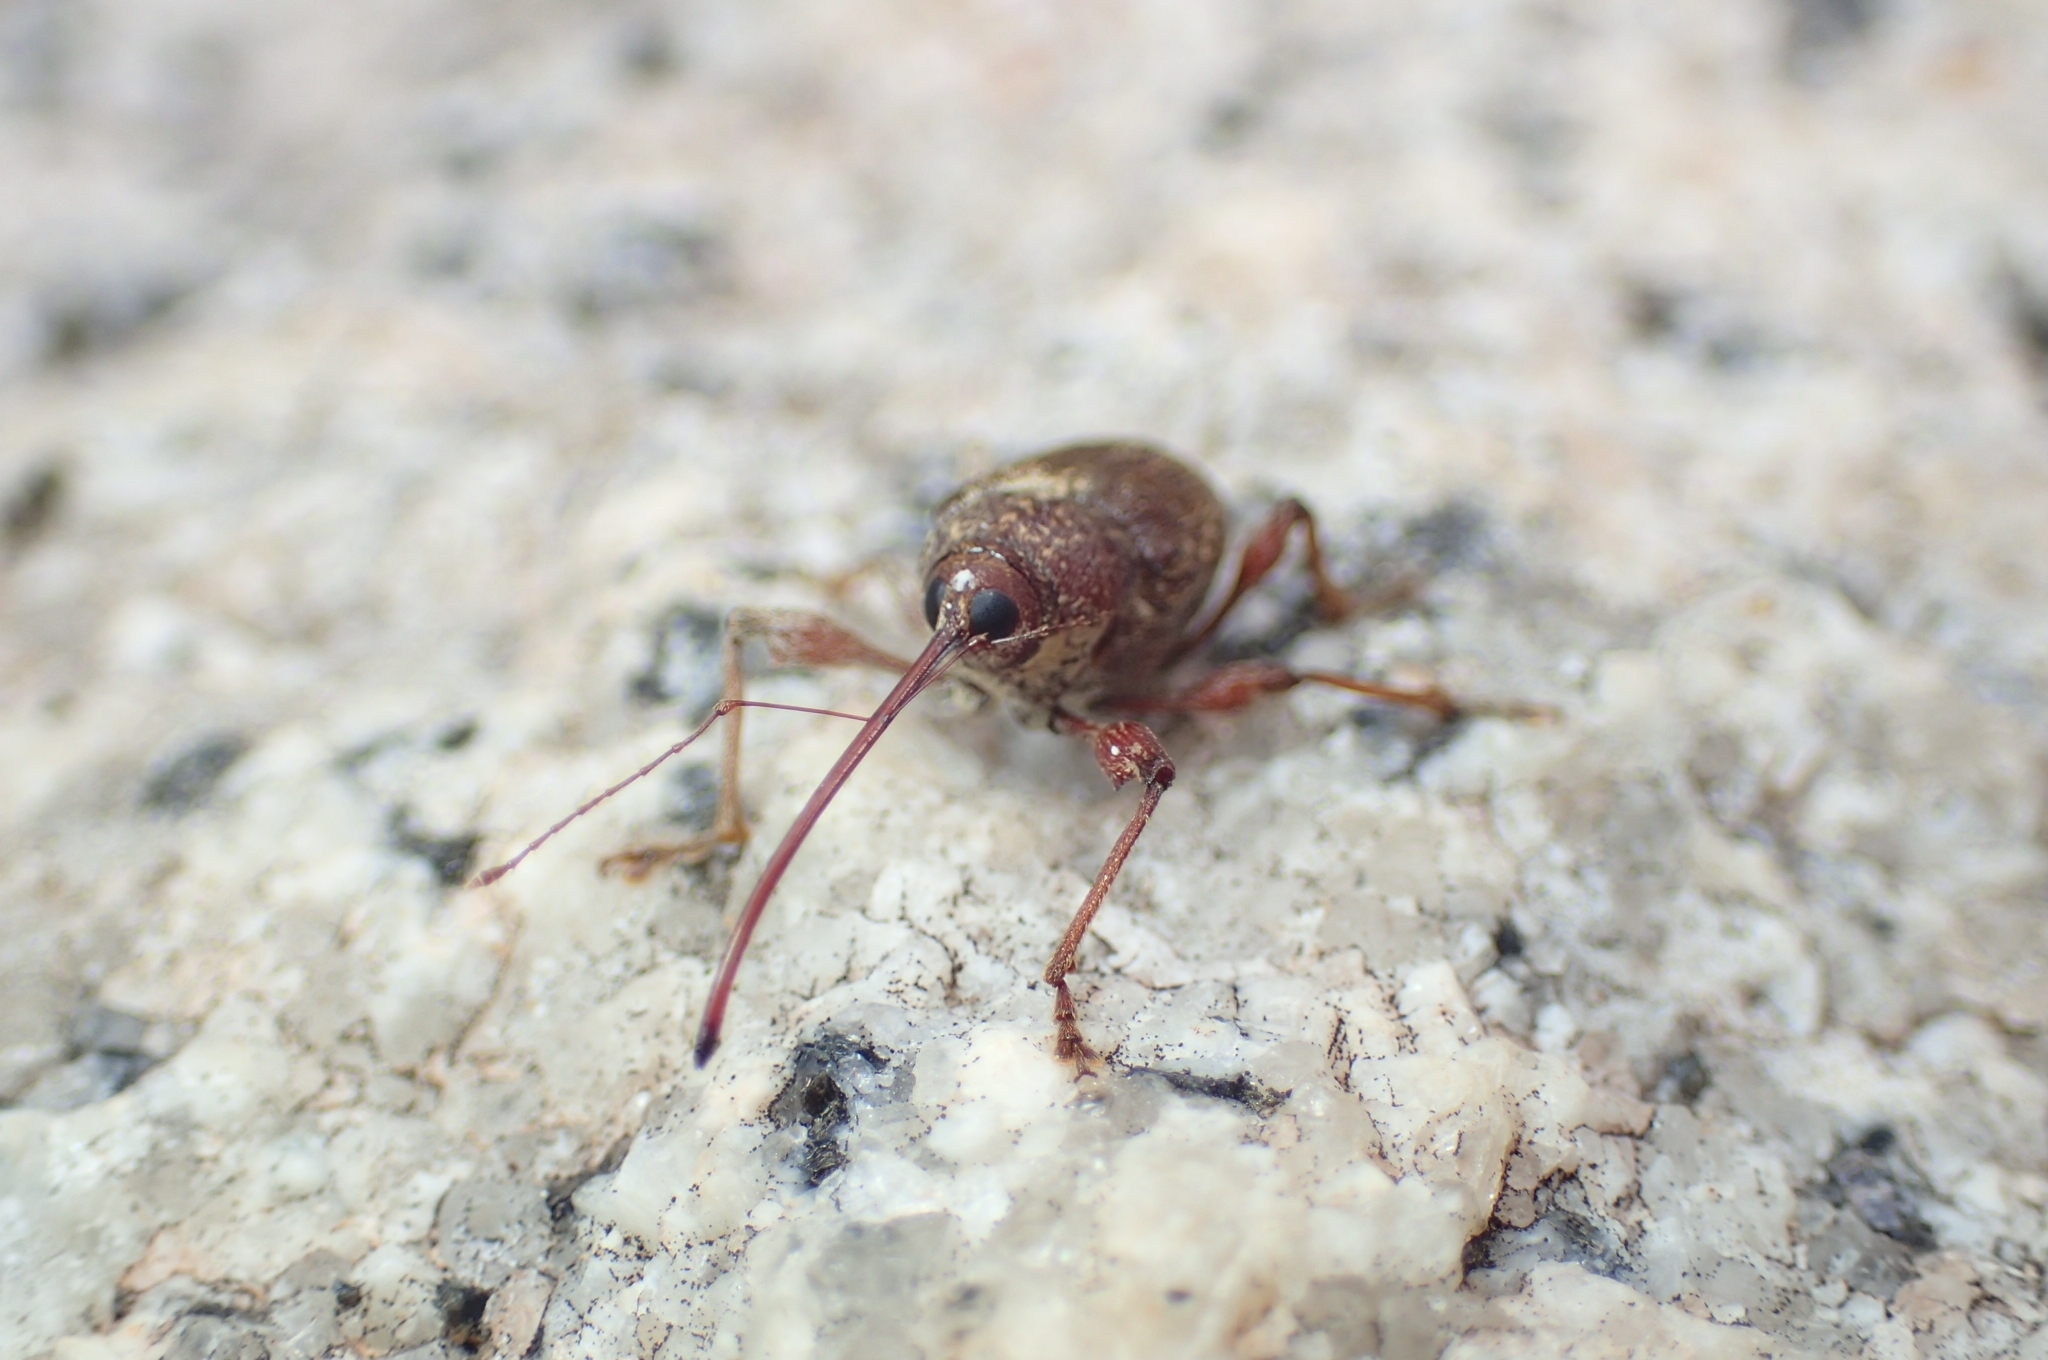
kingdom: Animalia
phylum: Arthropoda
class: Insecta
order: Coleoptera
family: Curculionidae
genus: Curculio
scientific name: Curculio elephas
